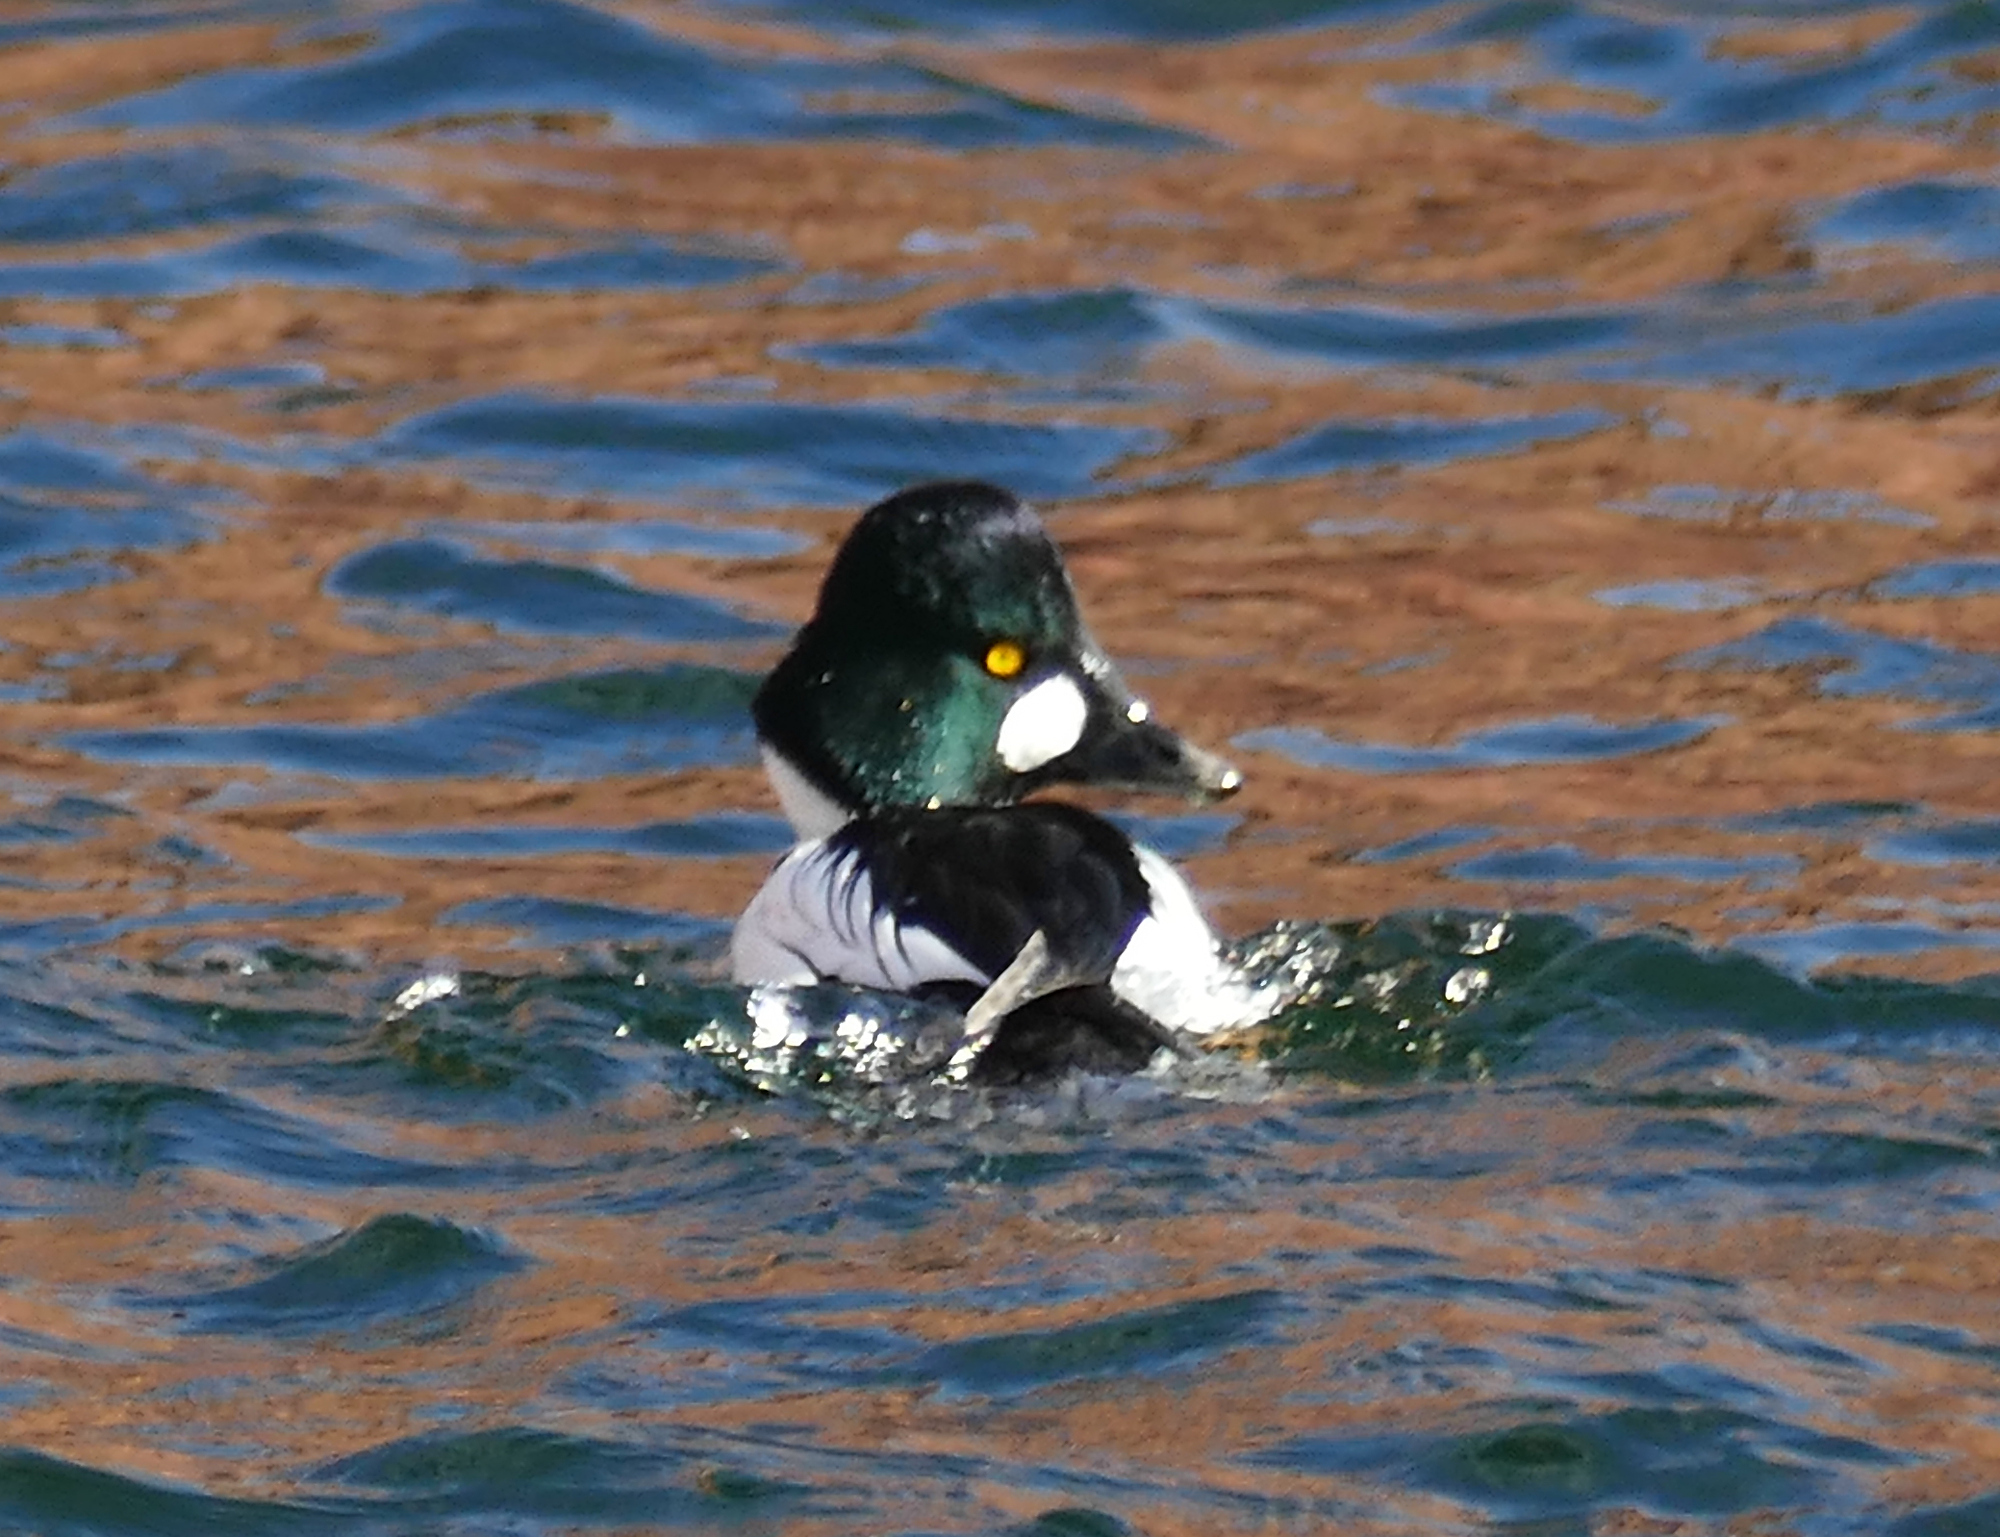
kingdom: Animalia
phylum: Chordata
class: Aves
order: Anseriformes
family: Anatidae
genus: Bucephala
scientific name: Bucephala clangula
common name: Common goldeneye
